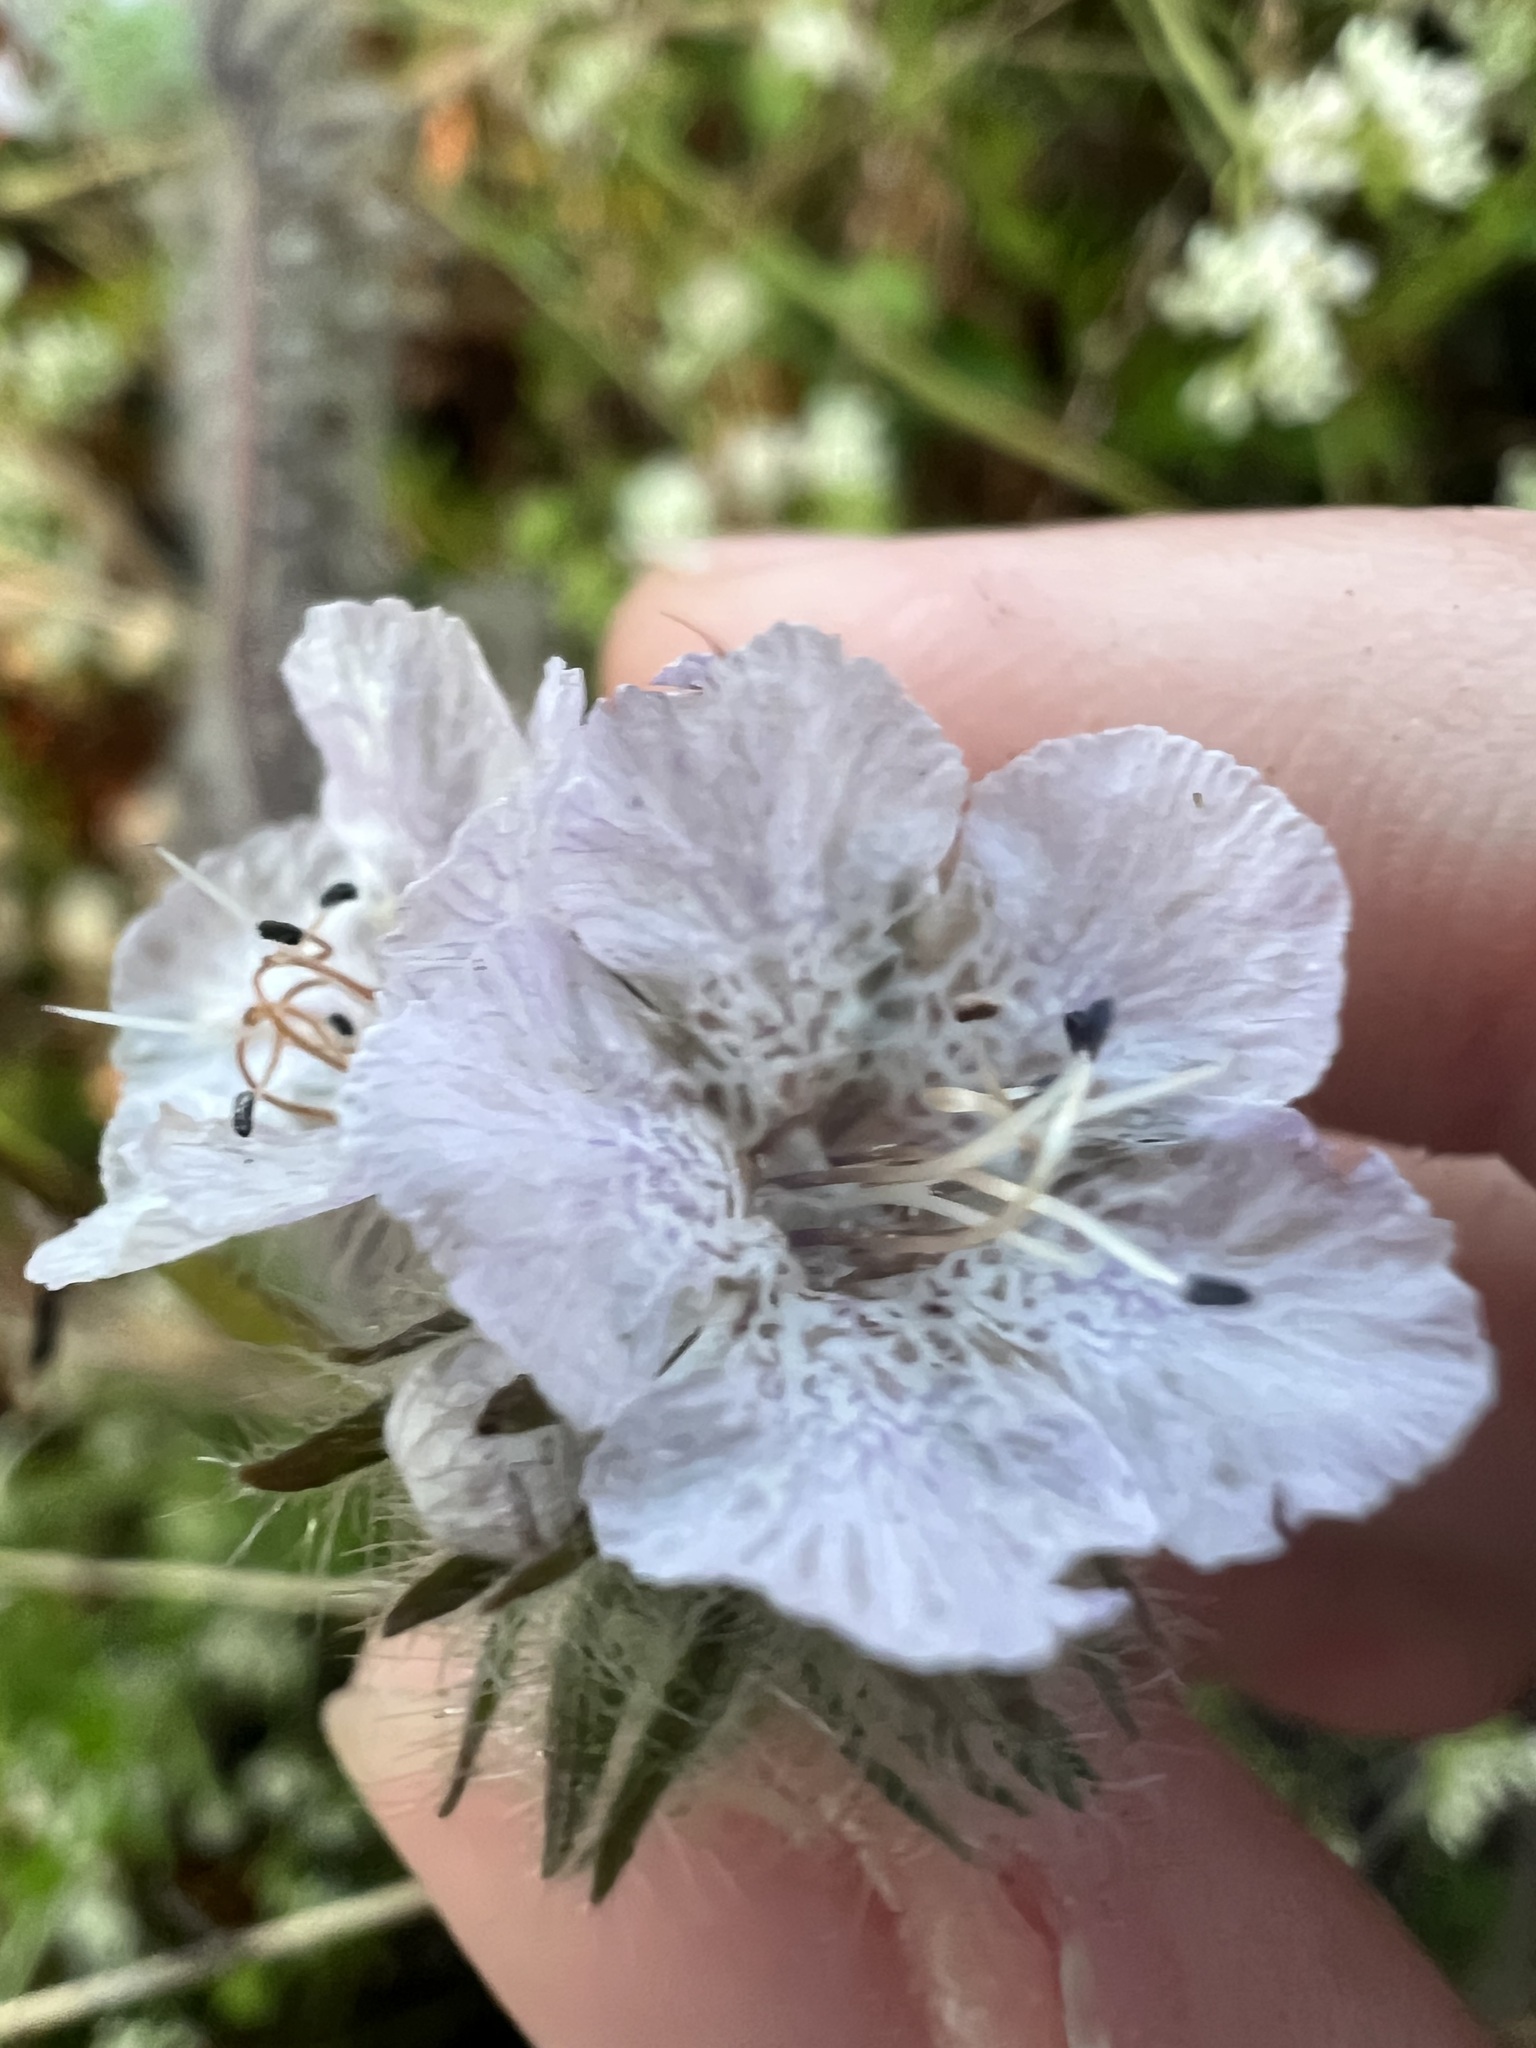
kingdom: Plantae
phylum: Tracheophyta
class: Magnoliopsida
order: Boraginales
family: Hydrophyllaceae
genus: Phacelia
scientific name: Phacelia cicutaria
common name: Caterpillar phacelia
